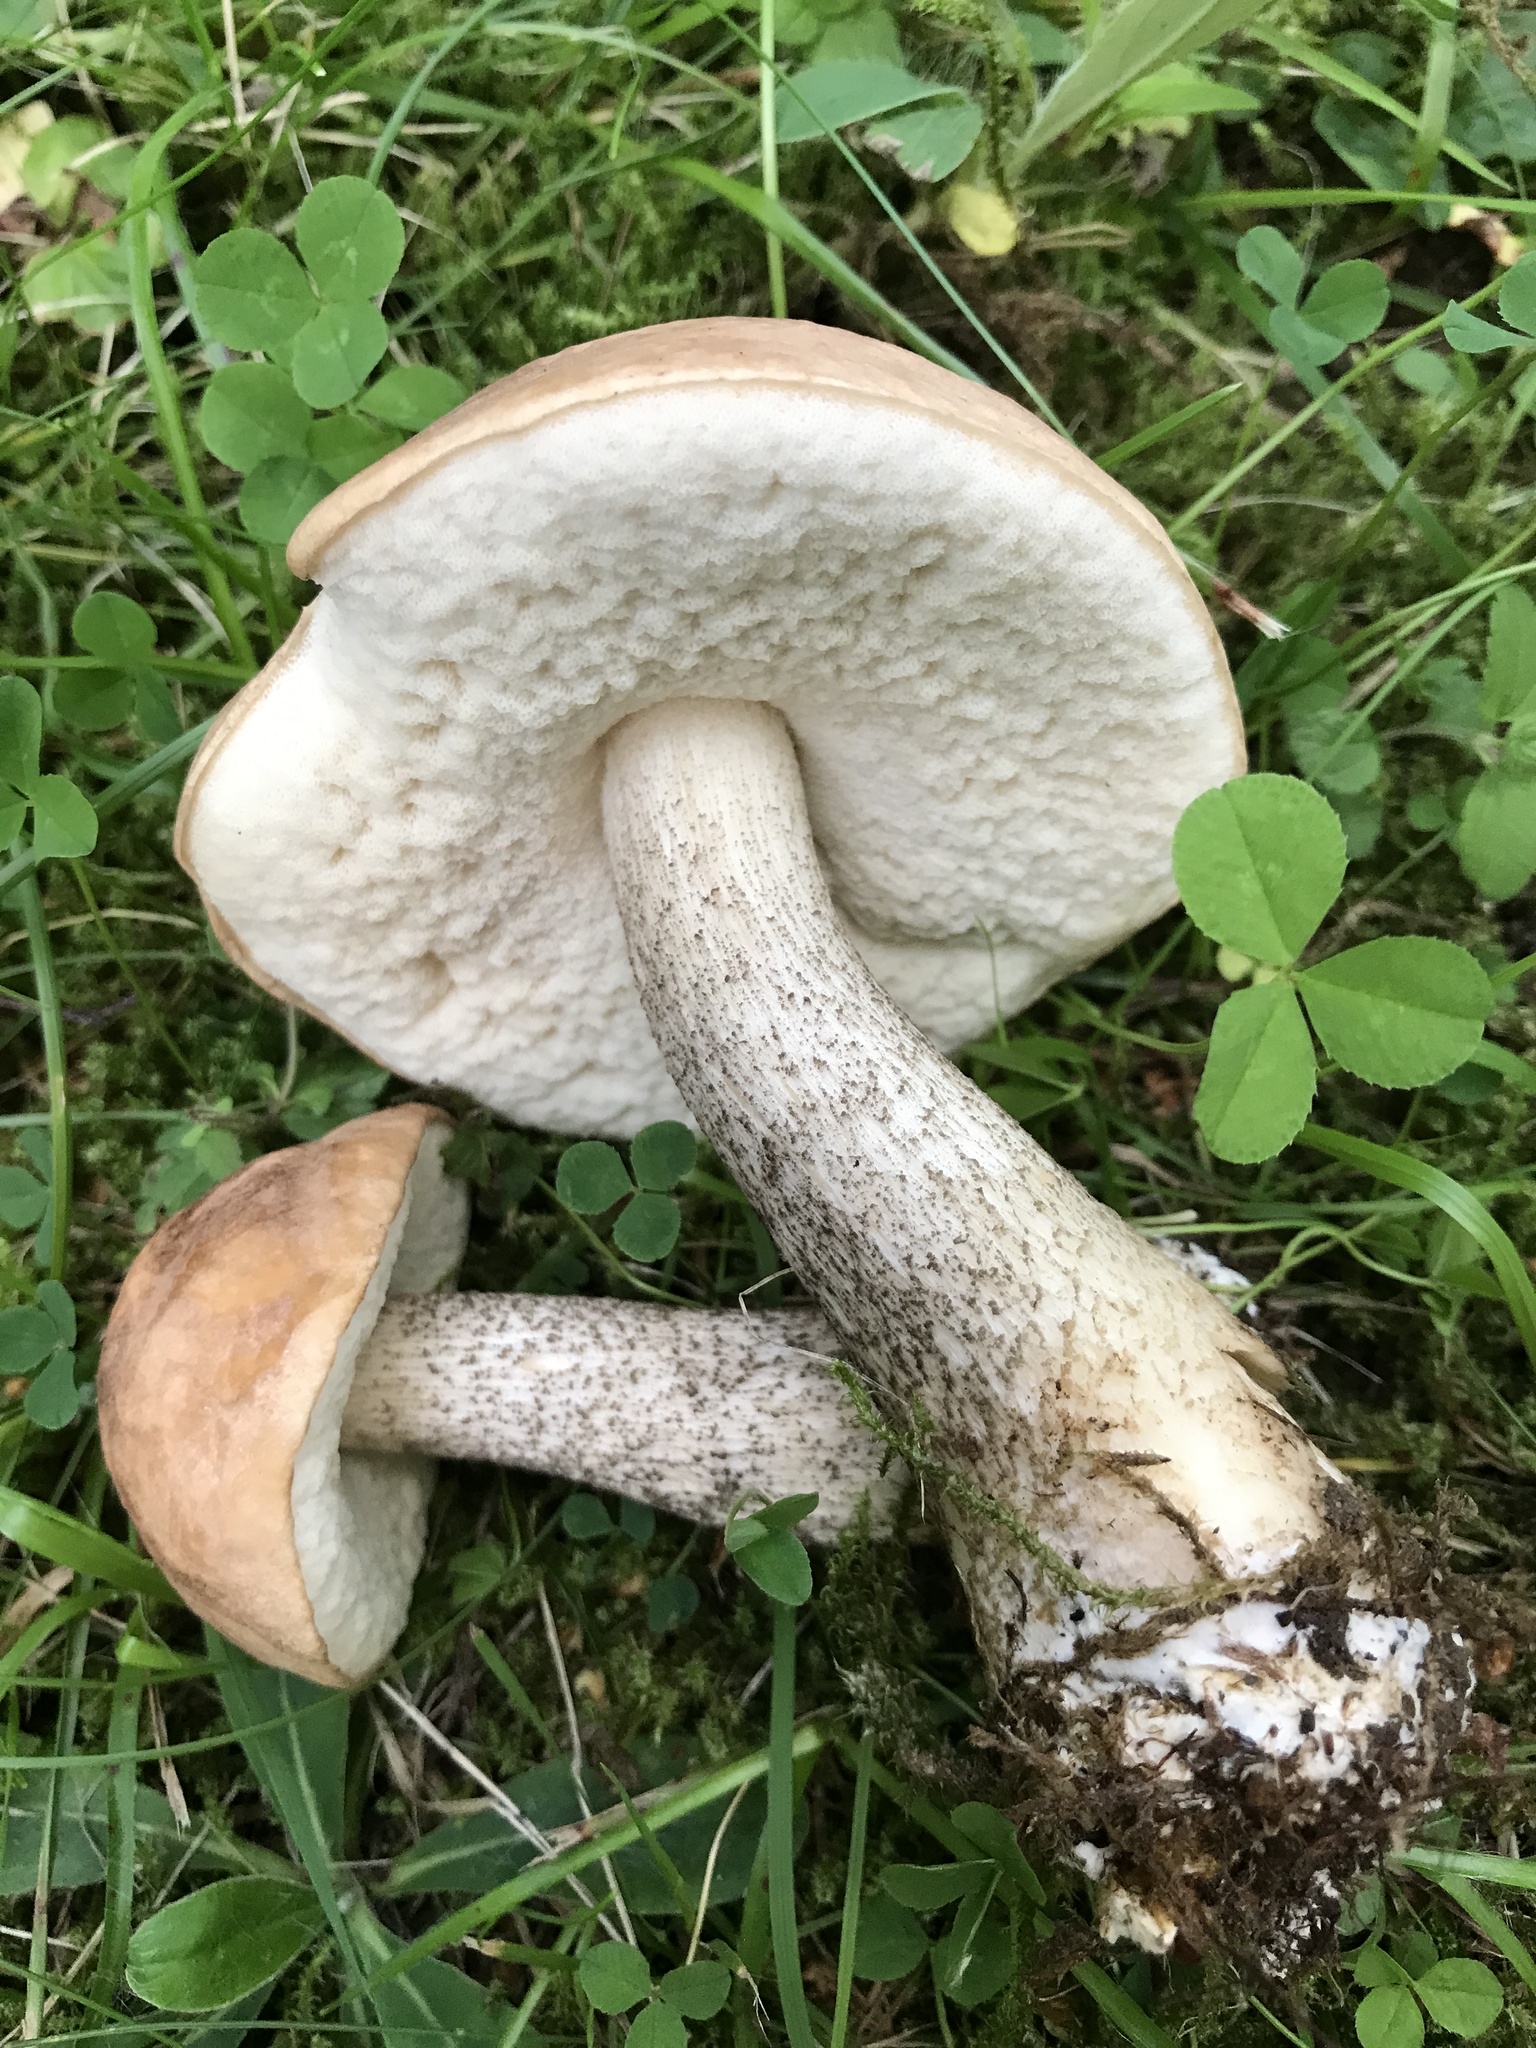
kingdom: Fungi
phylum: Basidiomycota
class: Agaricomycetes
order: Boletales
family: Boletaceae
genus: Leccinum
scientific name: Leccinum scabrum
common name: Blushing bolete
